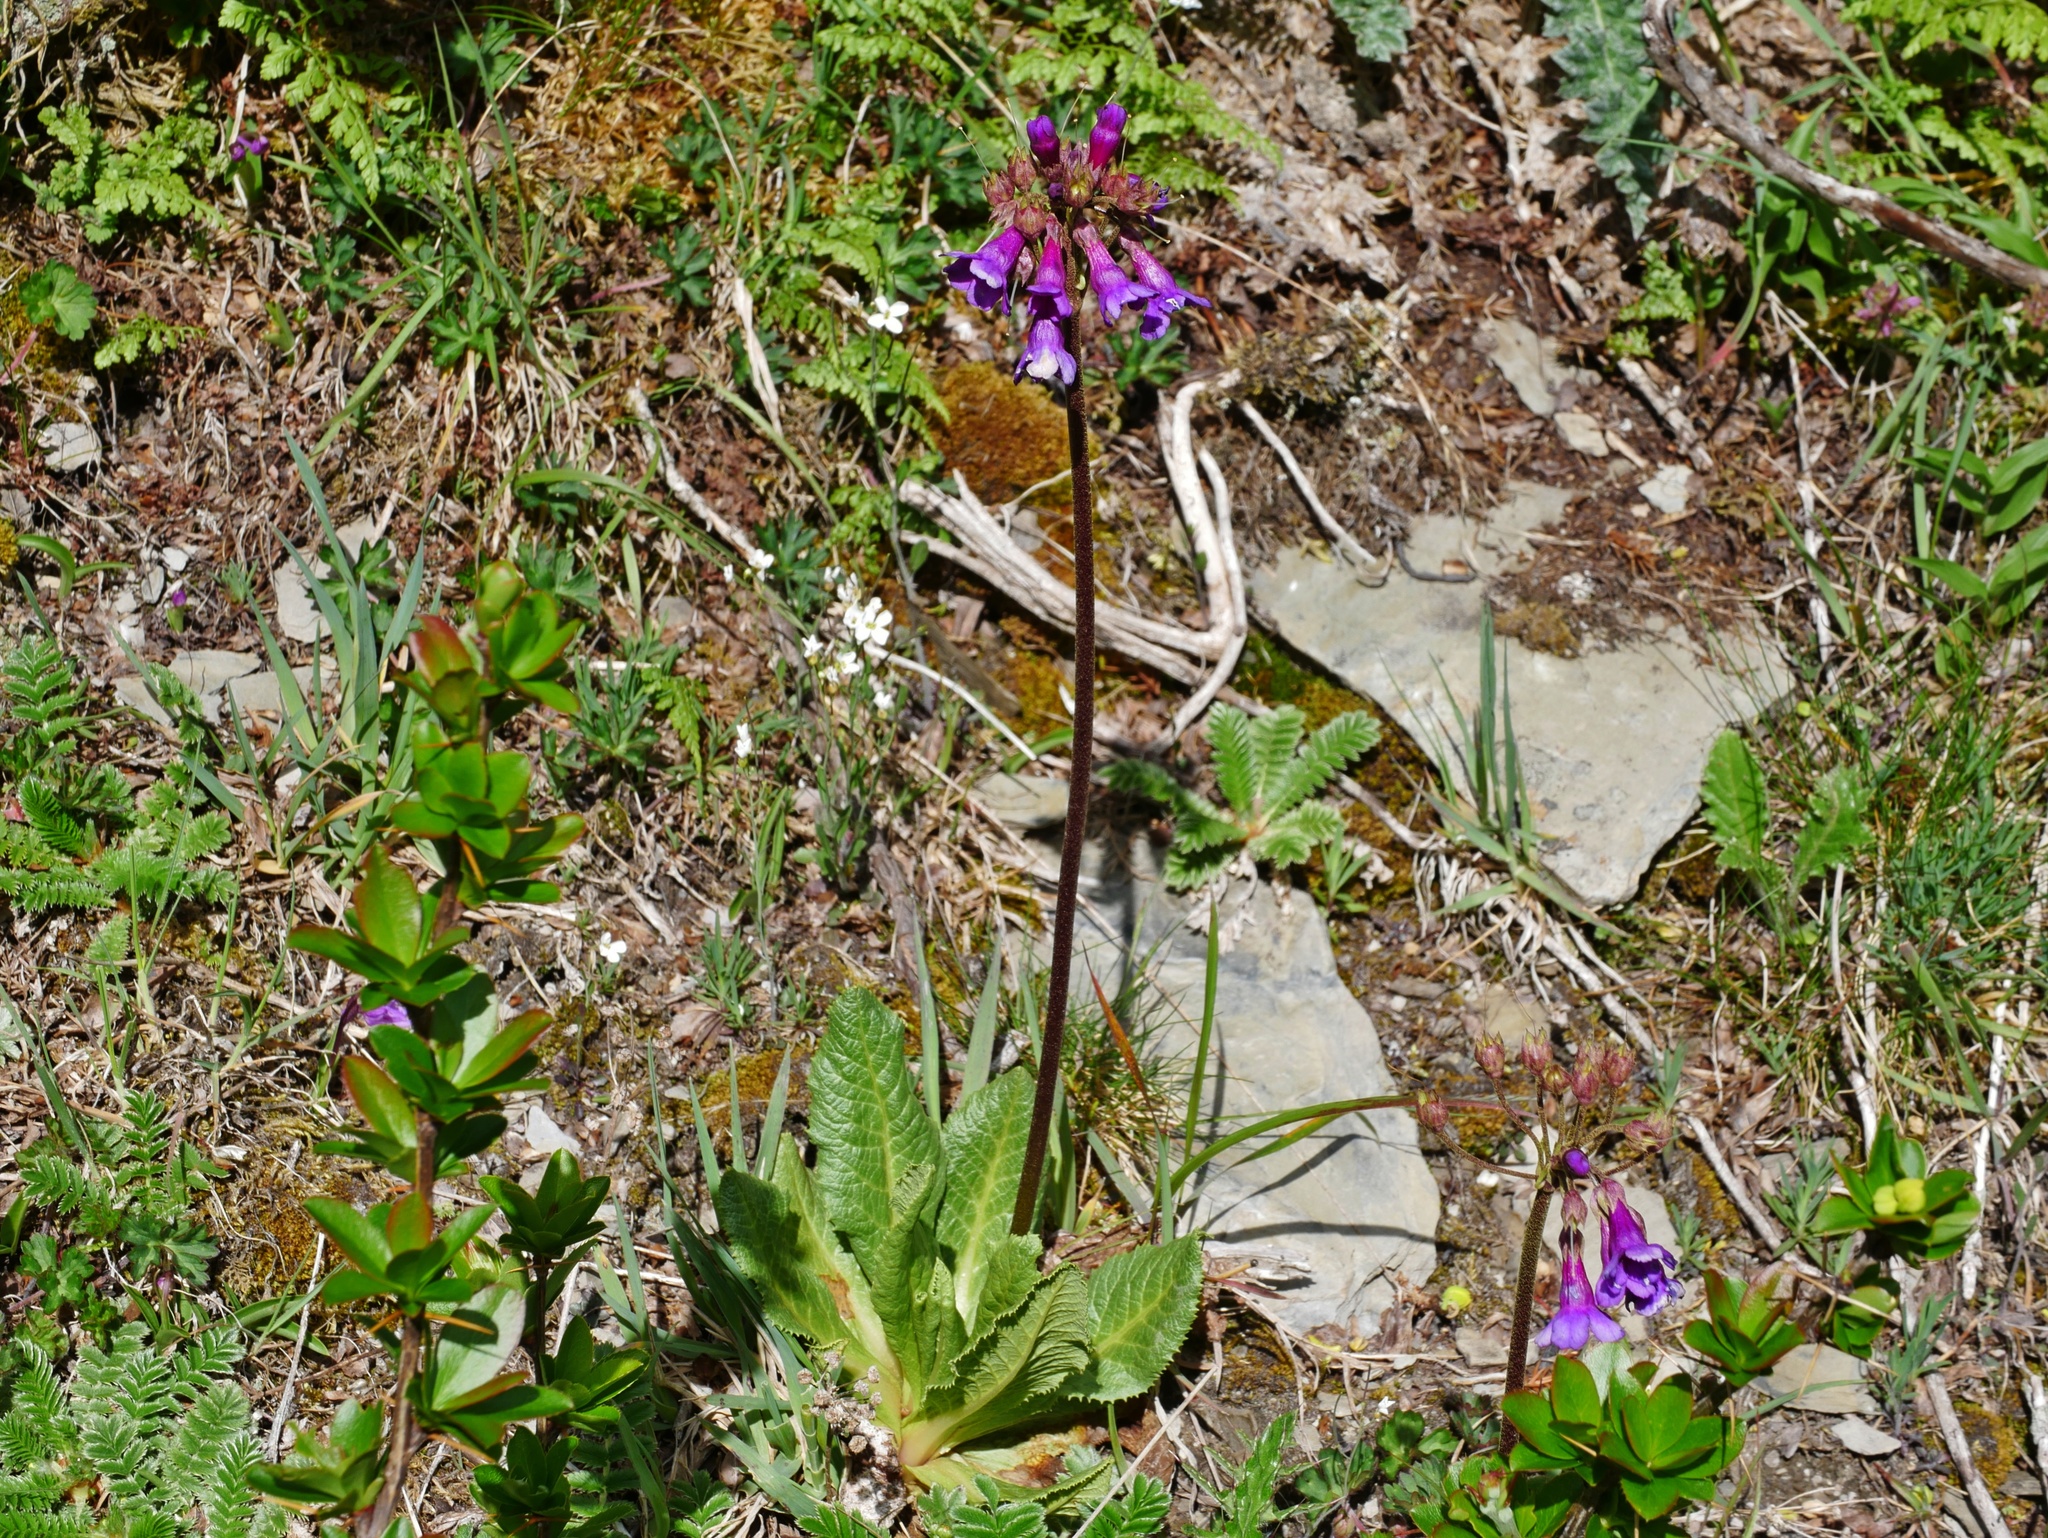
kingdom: Plantae
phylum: Tracheophyta
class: Magnoliopsida
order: Ericales
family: Primulaceae
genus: Primula
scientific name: Primula miyabeana
